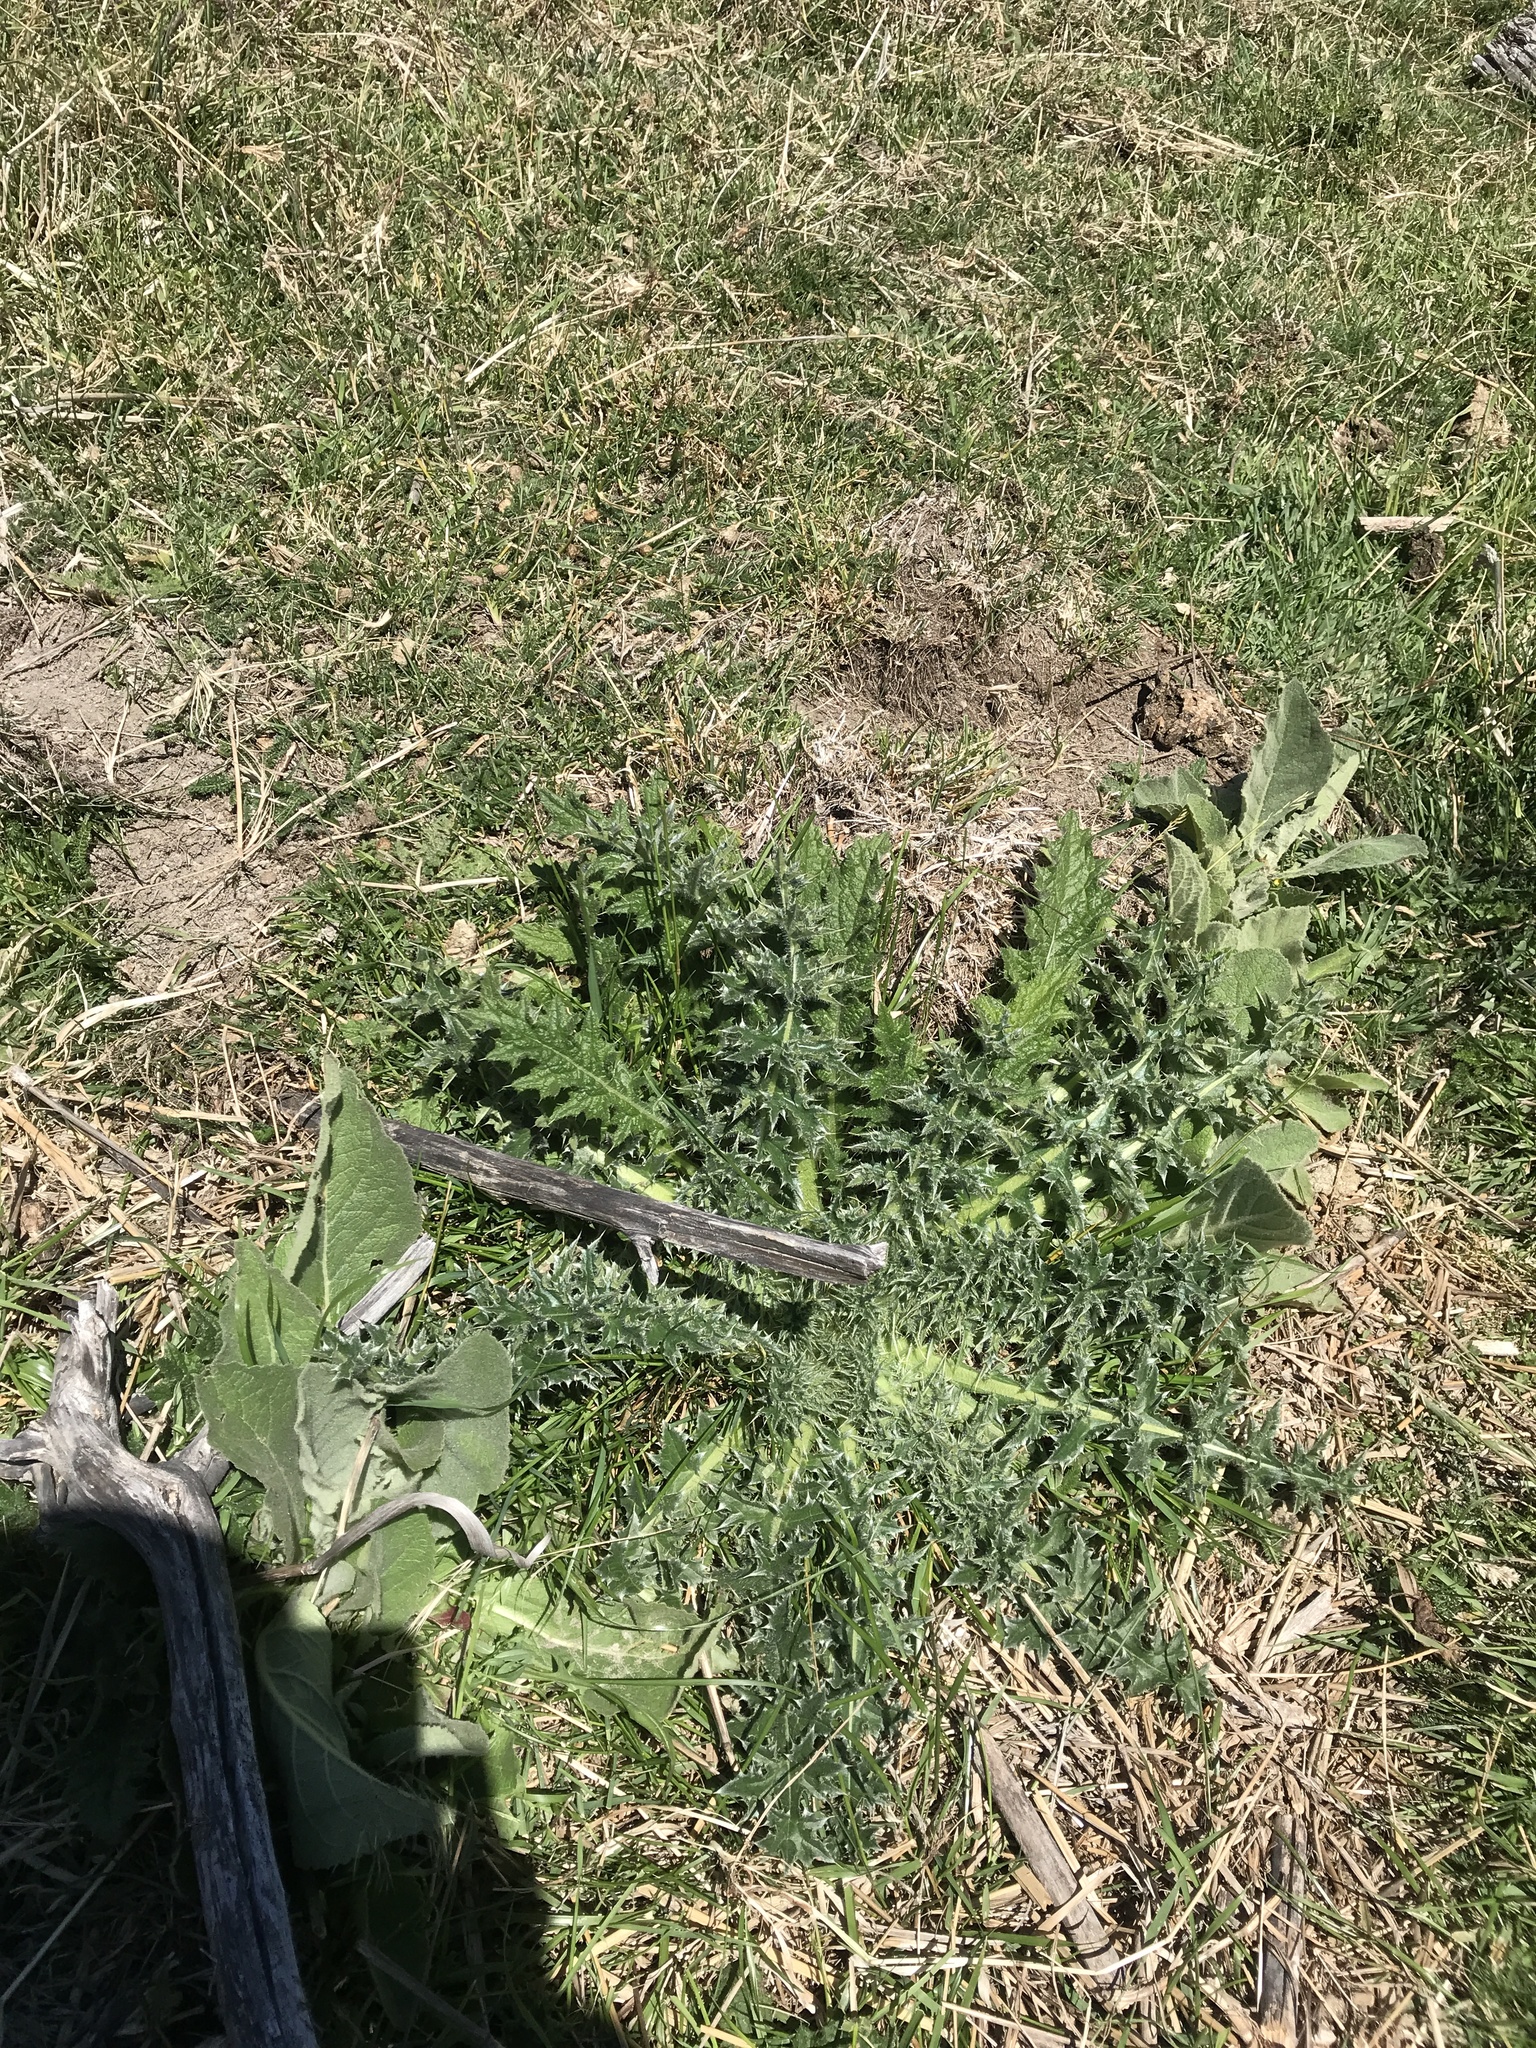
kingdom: Plantae
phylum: Tracheophyta
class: Magnoliopsida
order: Asterales
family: Asteraceae
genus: Carduus
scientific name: Carduus nutans
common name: Musk thistle
